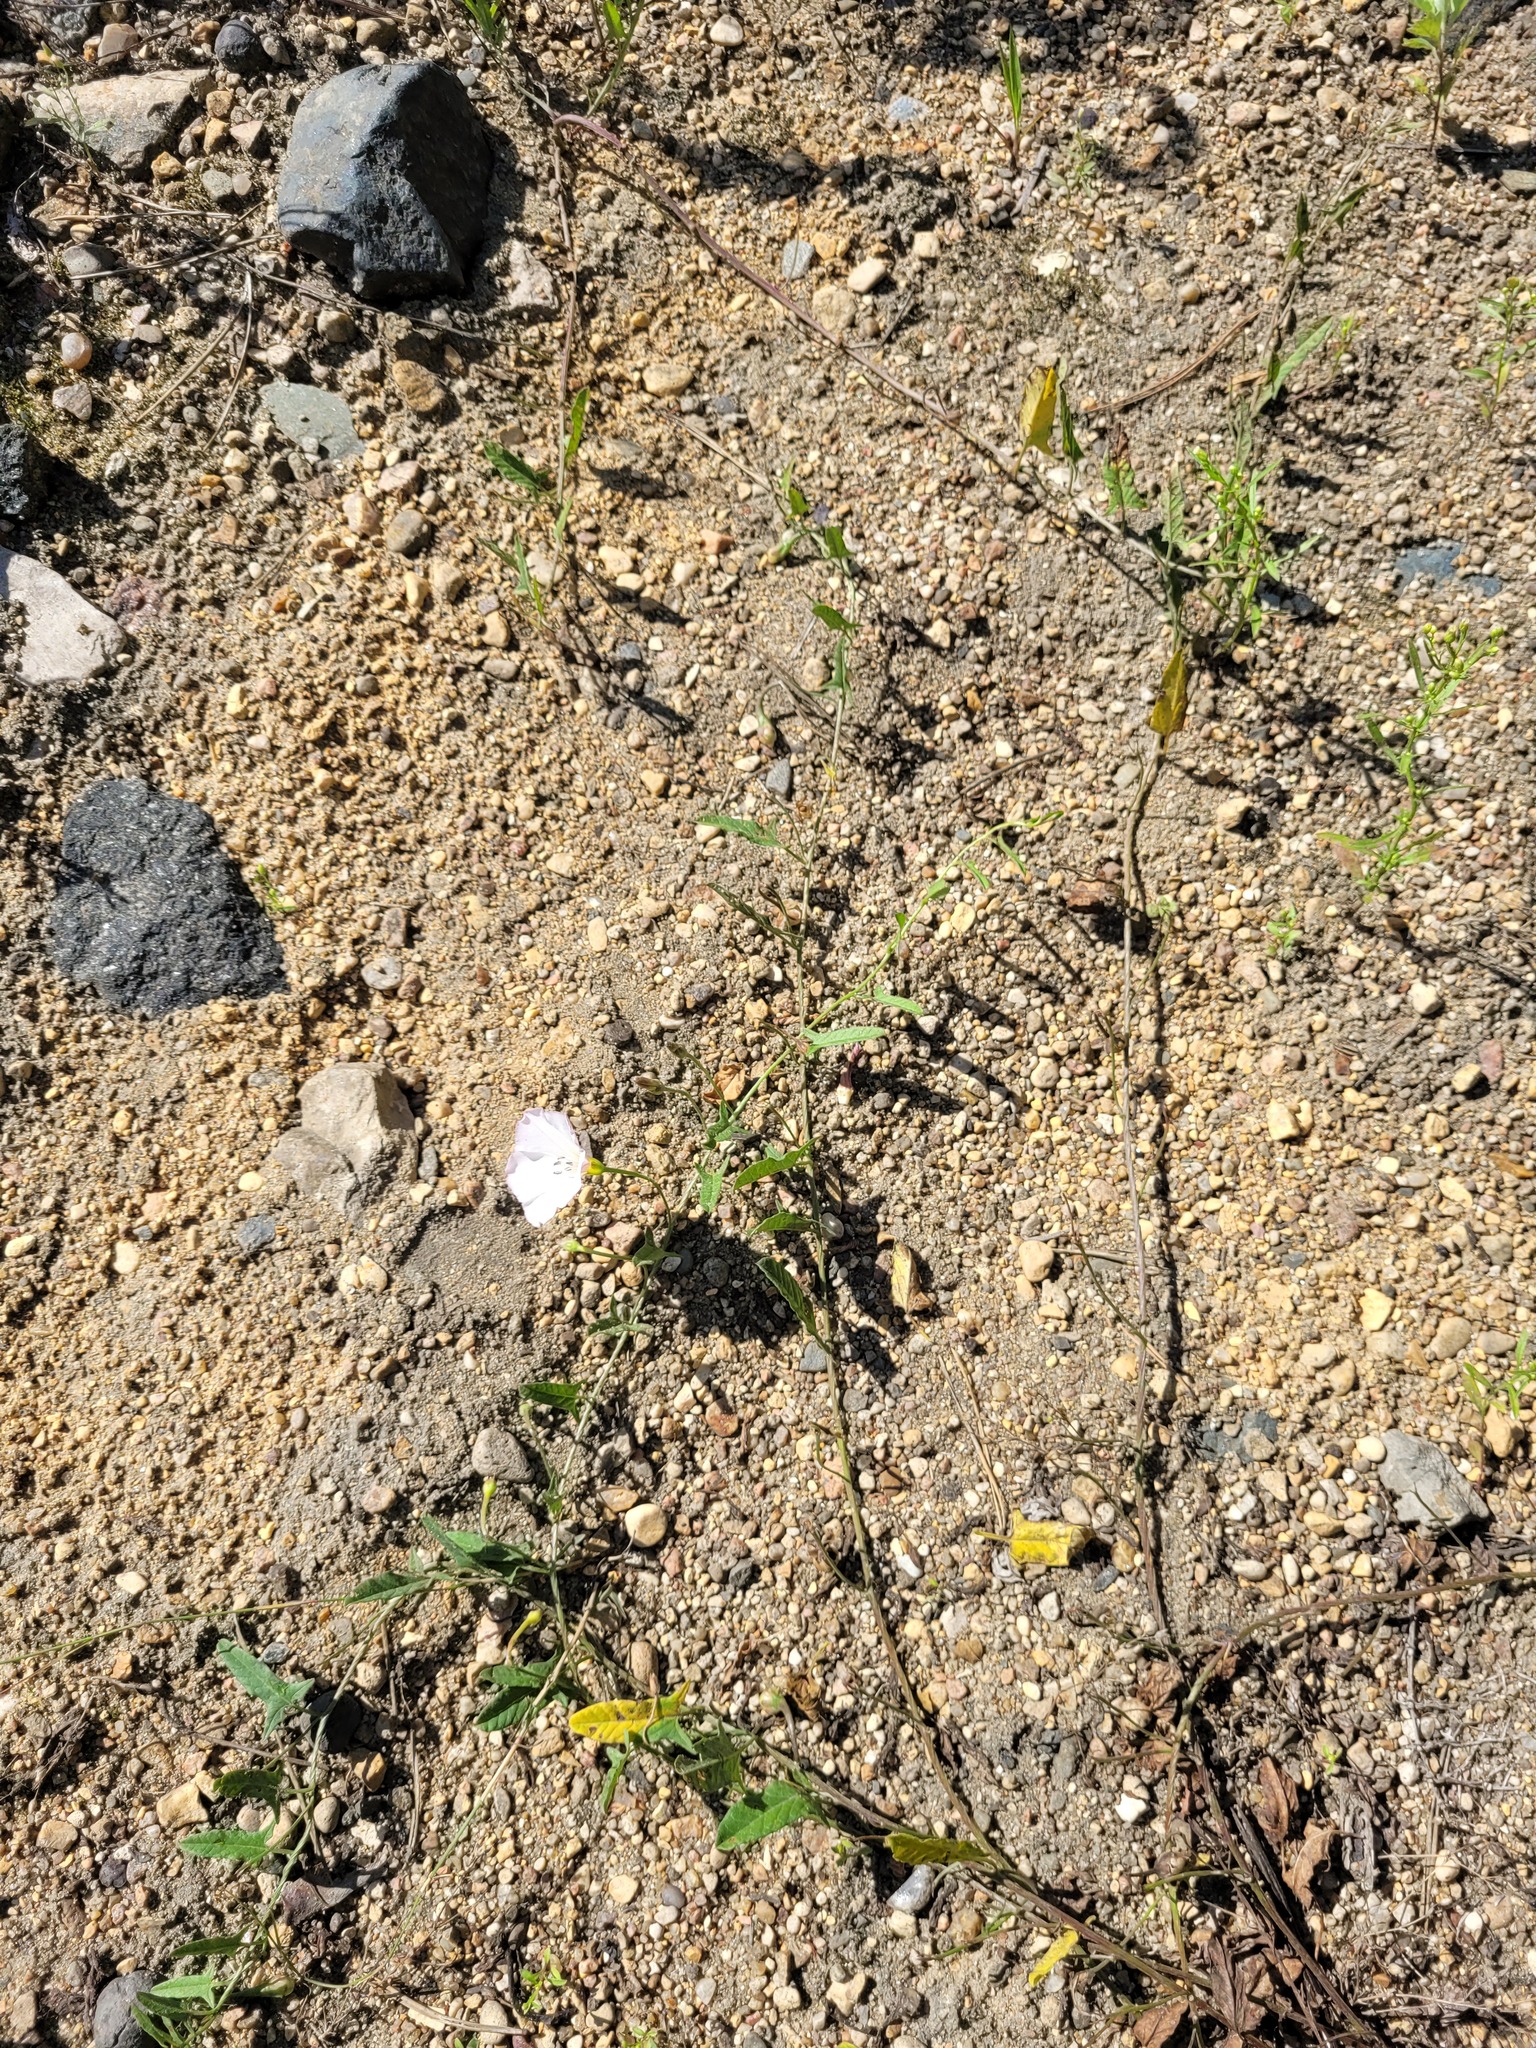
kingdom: Plantae
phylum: Tracheophyta
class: Magnoliopsida
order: Solanales
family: Convolvulaceae
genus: Convolvulus
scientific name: Convolvulus arvensis
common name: Field bindweed
